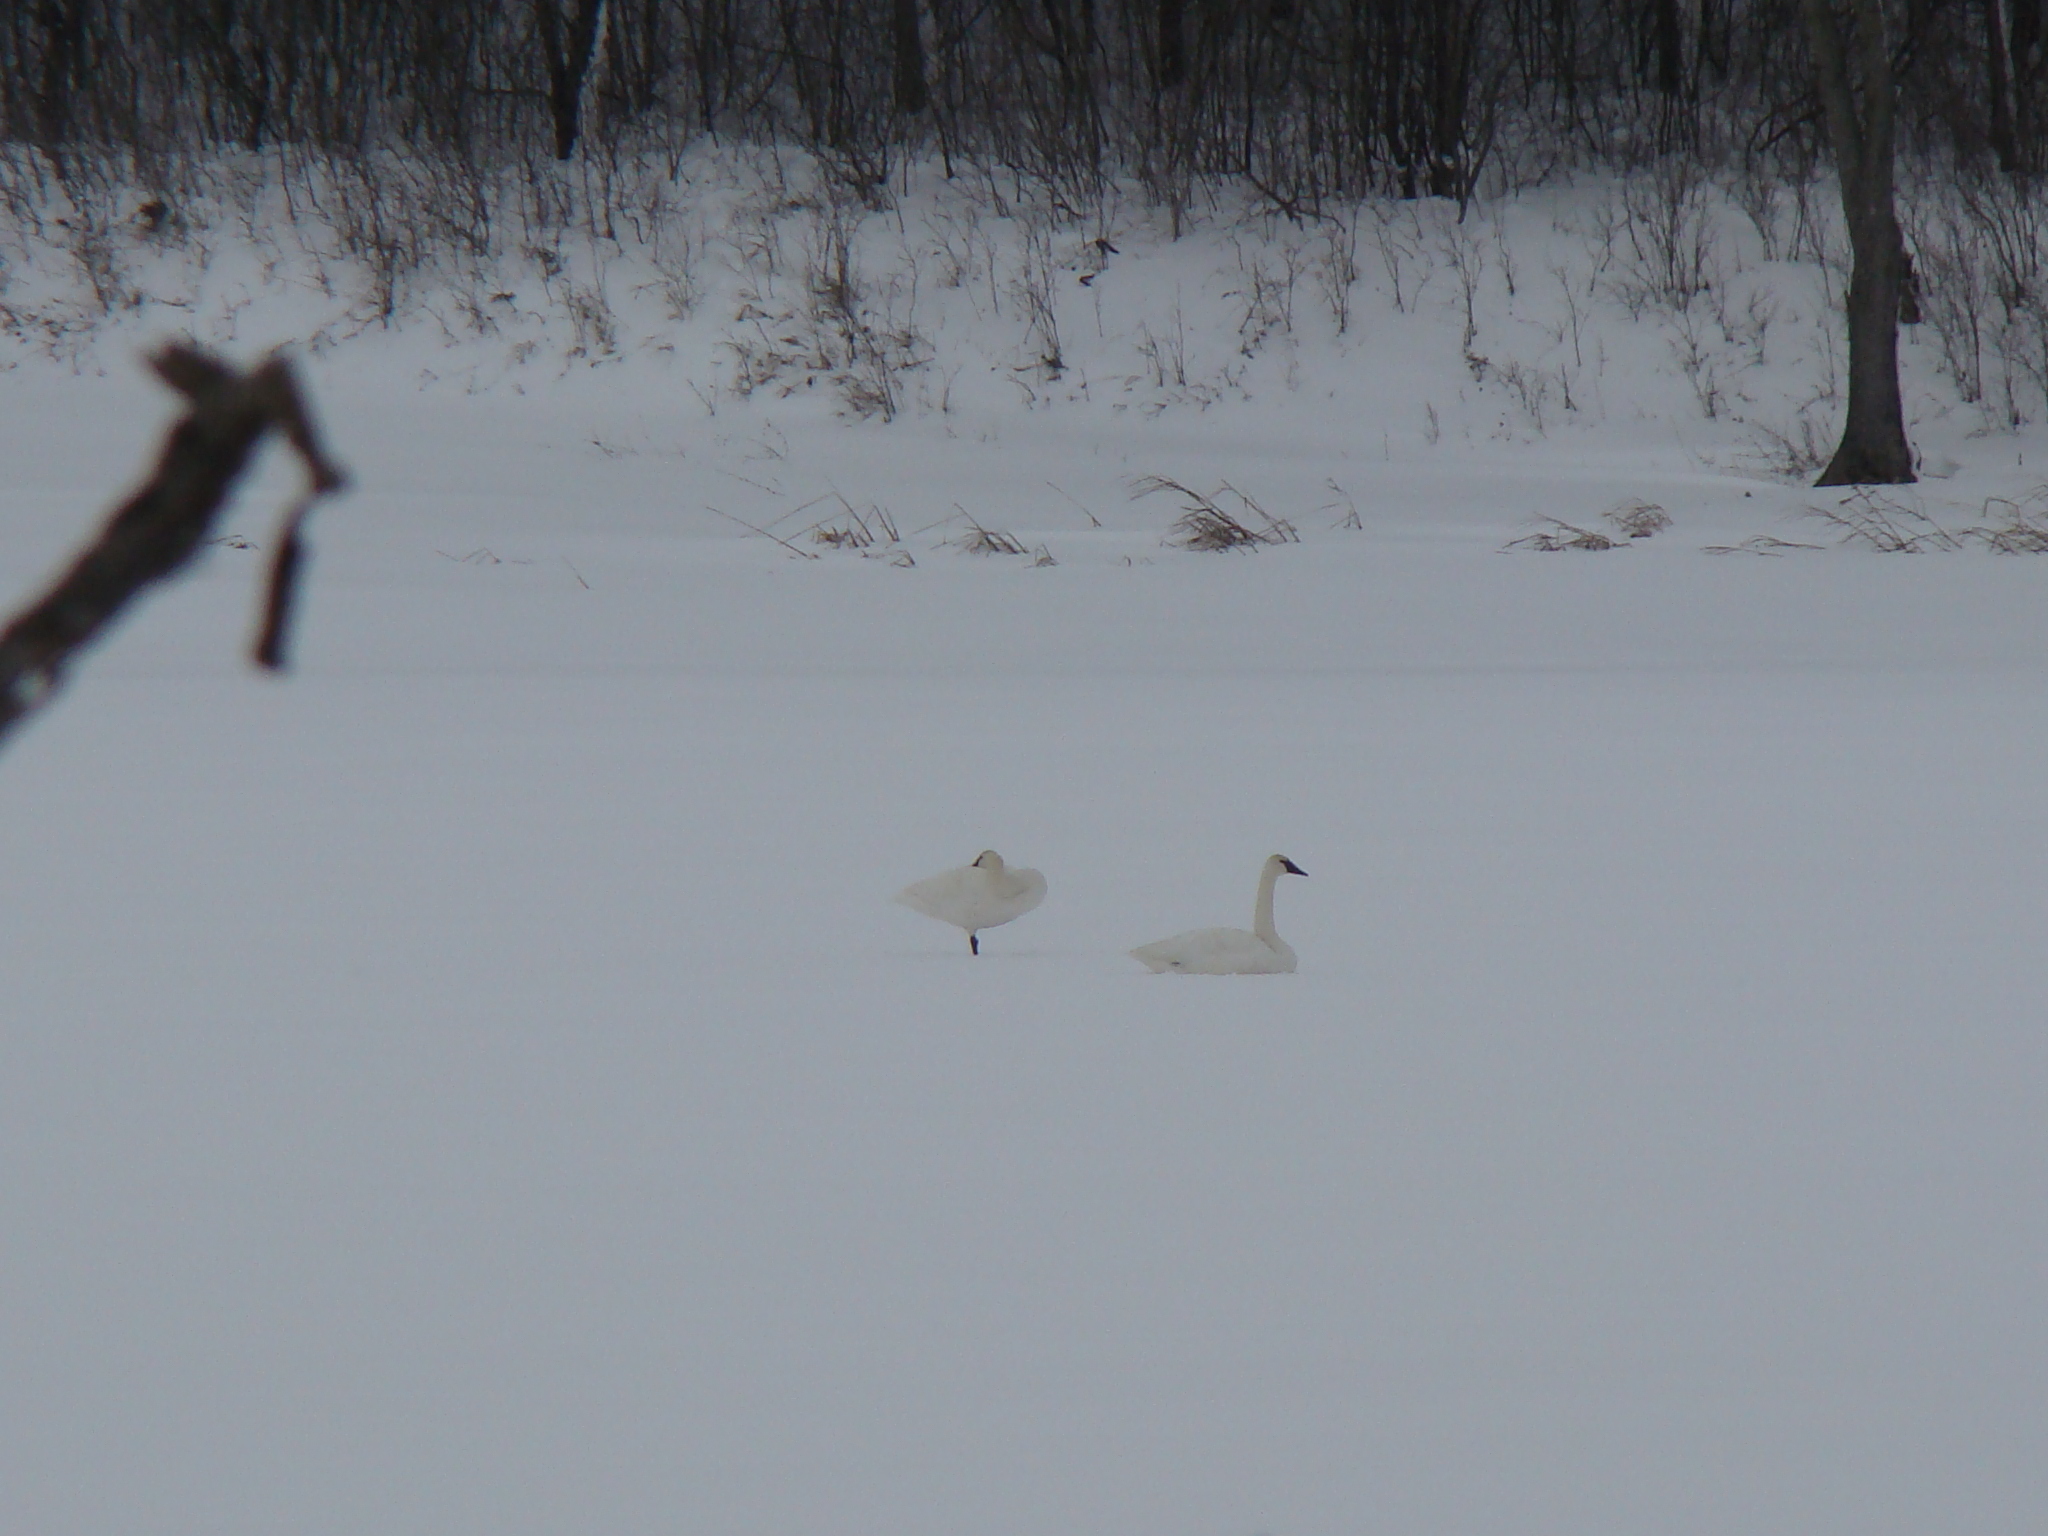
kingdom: Animalia
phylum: Chordata
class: Aves
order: Anseriformes
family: Anatidae
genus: Cygnus
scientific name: Cygnus buccinator
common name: Trumpeter swan
